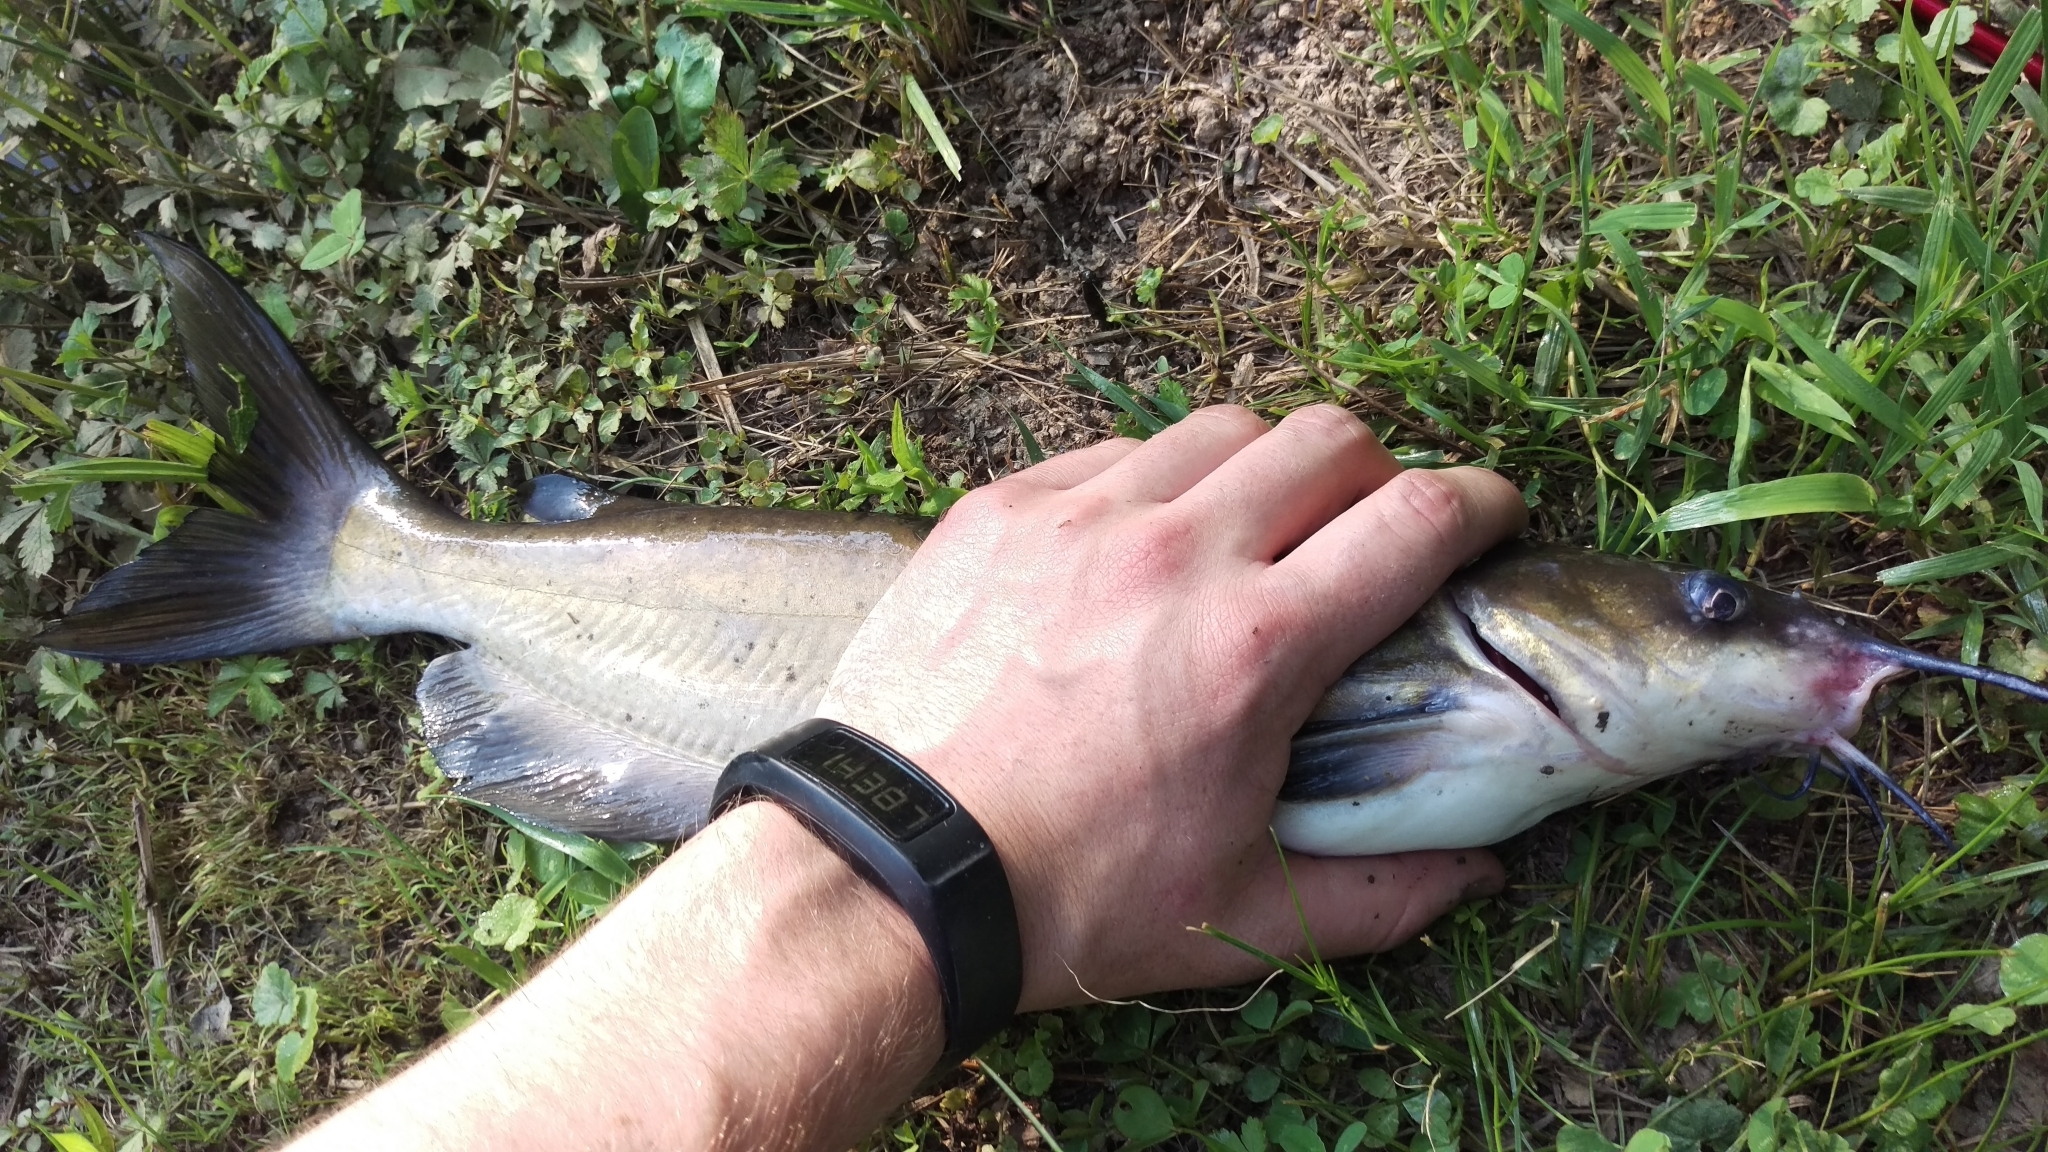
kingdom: Animalia
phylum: Chordata
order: Siluriformes
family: Ictaluridae
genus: Ictalurus
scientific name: Ictalurus punctatus
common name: Channel catfish
